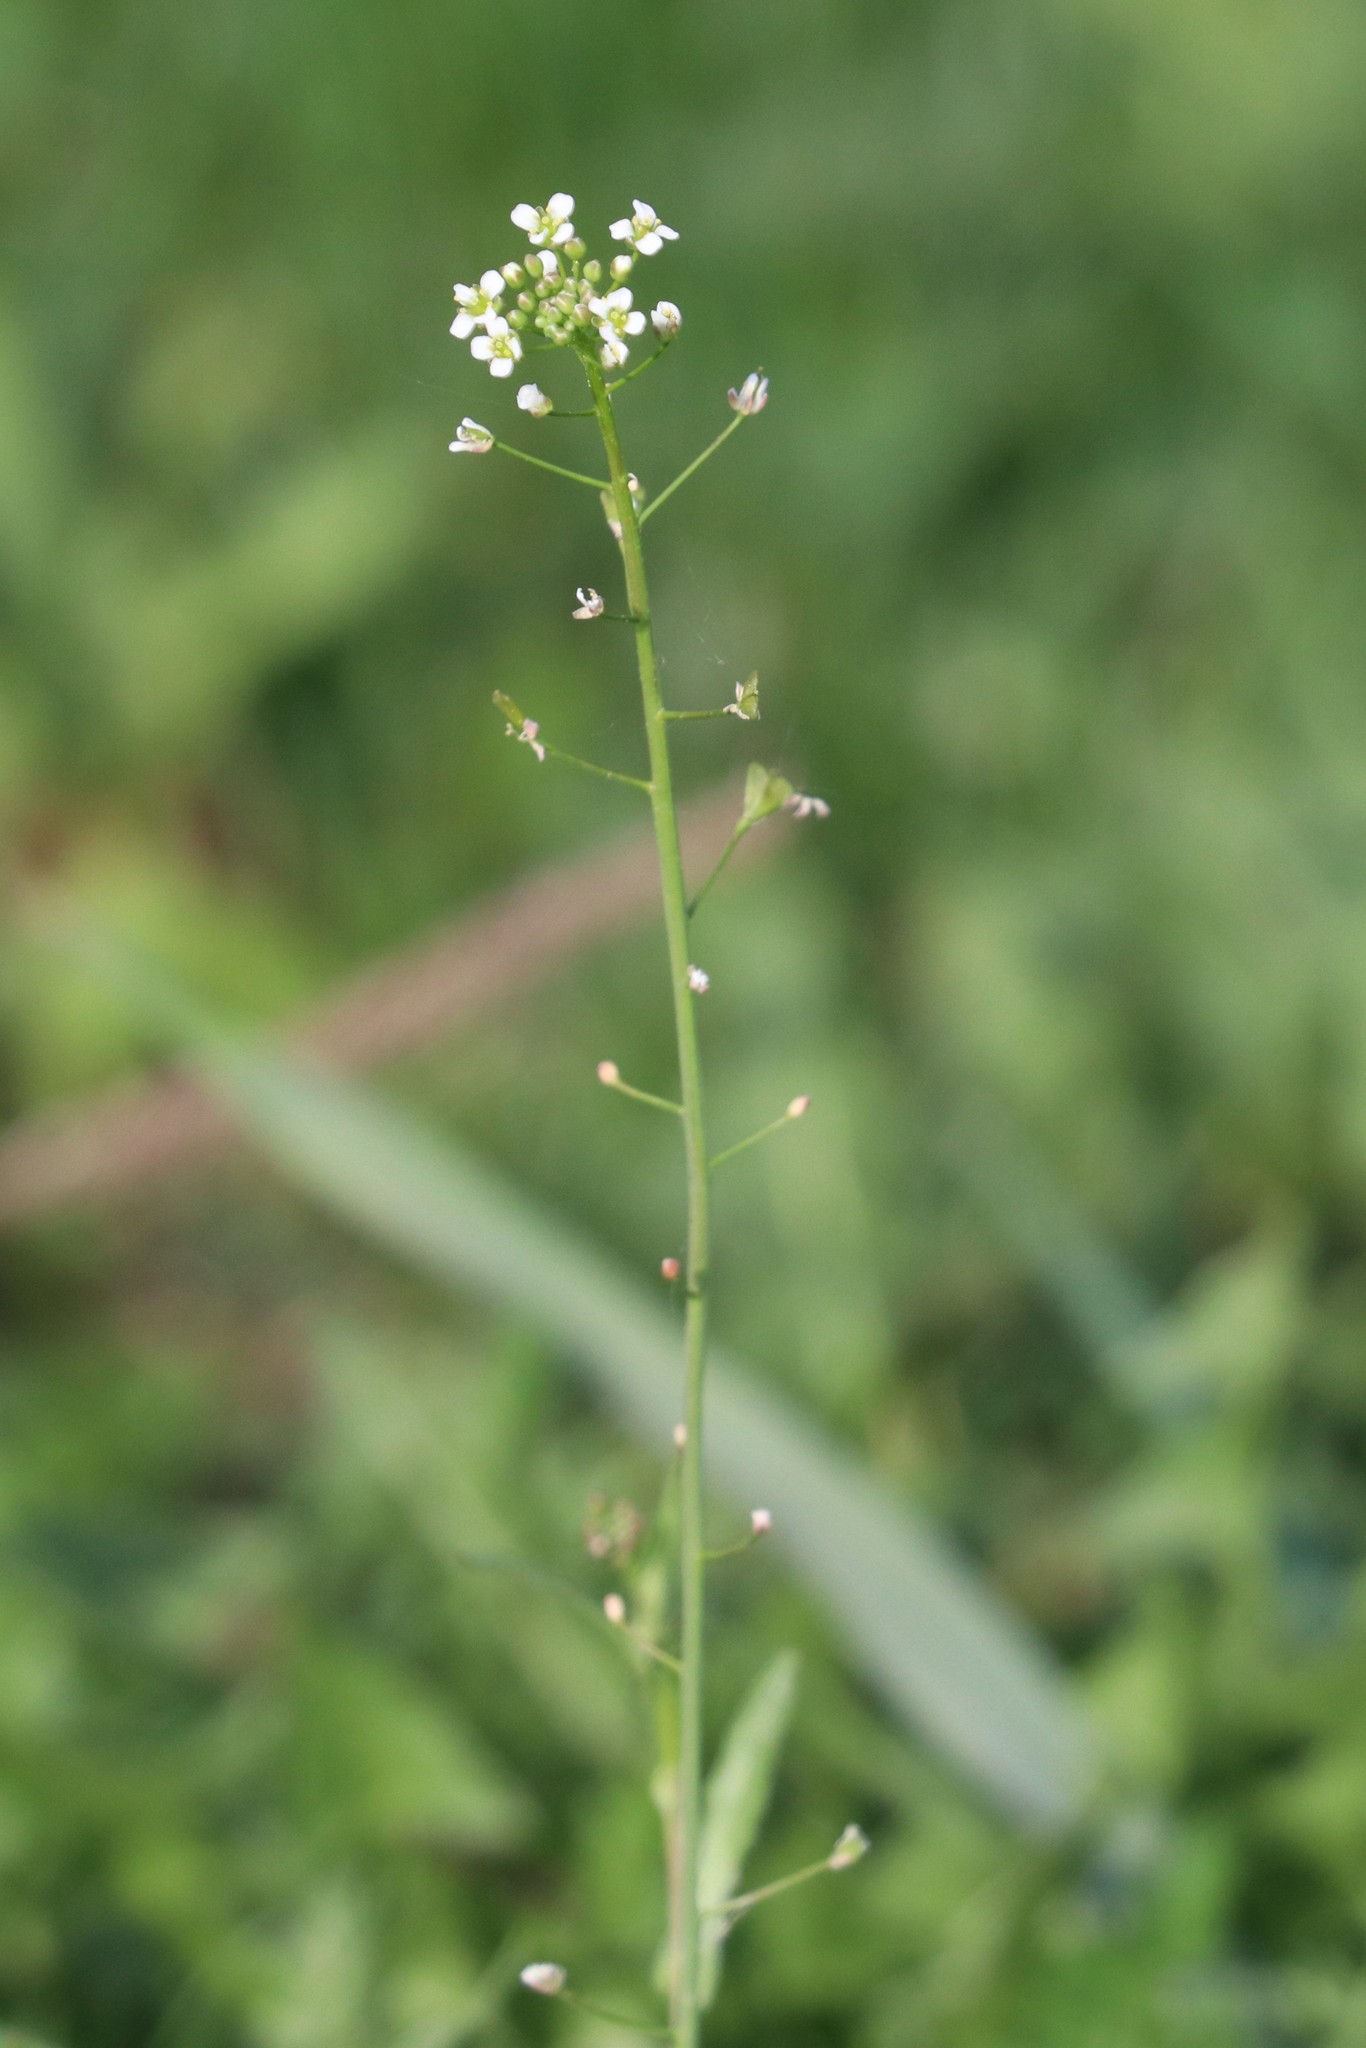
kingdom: Plantae
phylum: Tracheophyta
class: Magnoliopsida
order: Brassicales
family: Brassicaceae
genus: Capsella
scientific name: Capsella bursa-pastoris
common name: Shepherd's purse
